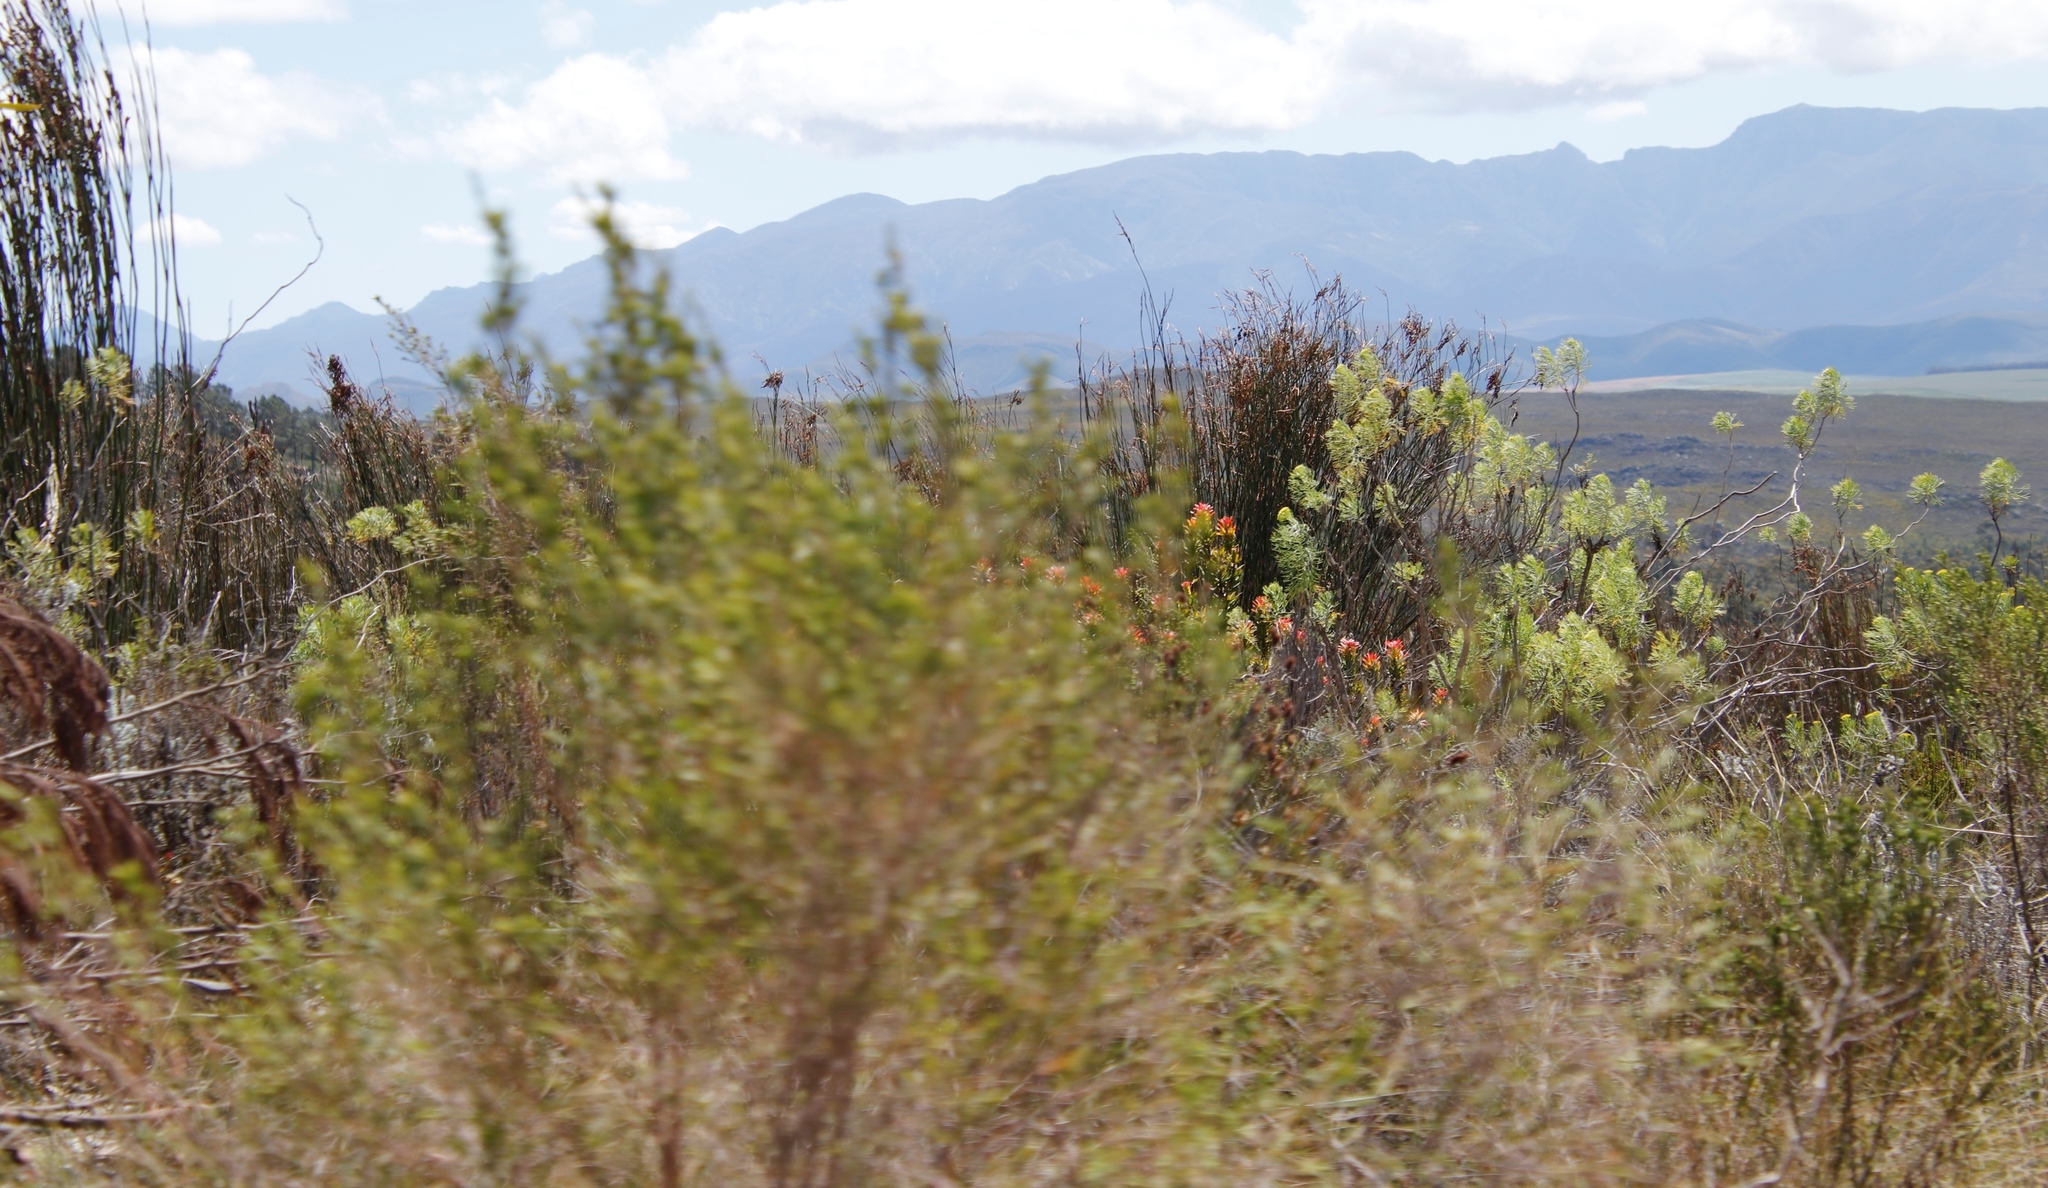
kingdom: Plantae
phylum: Tracheophyta
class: Magnoliopsida
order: Proteales
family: Proteaceae
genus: Mimetes
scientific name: Mimetes cucullatus
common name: Common pagoda
